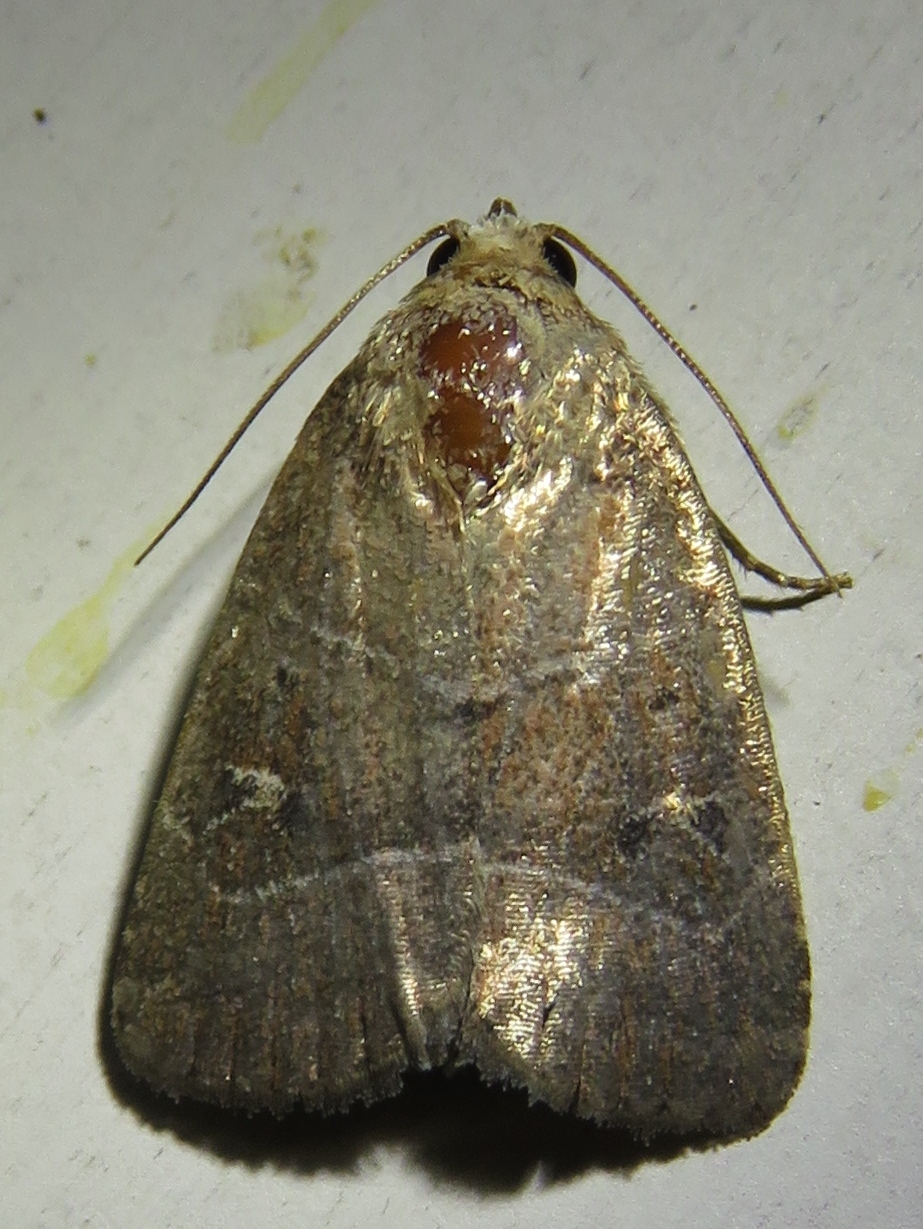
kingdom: Animalia
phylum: Arthropoda
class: Insecta
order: Lepidoptera
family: Noctuidae
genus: Elaphria
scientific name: Elaphria grata
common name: Grateful midget moth
